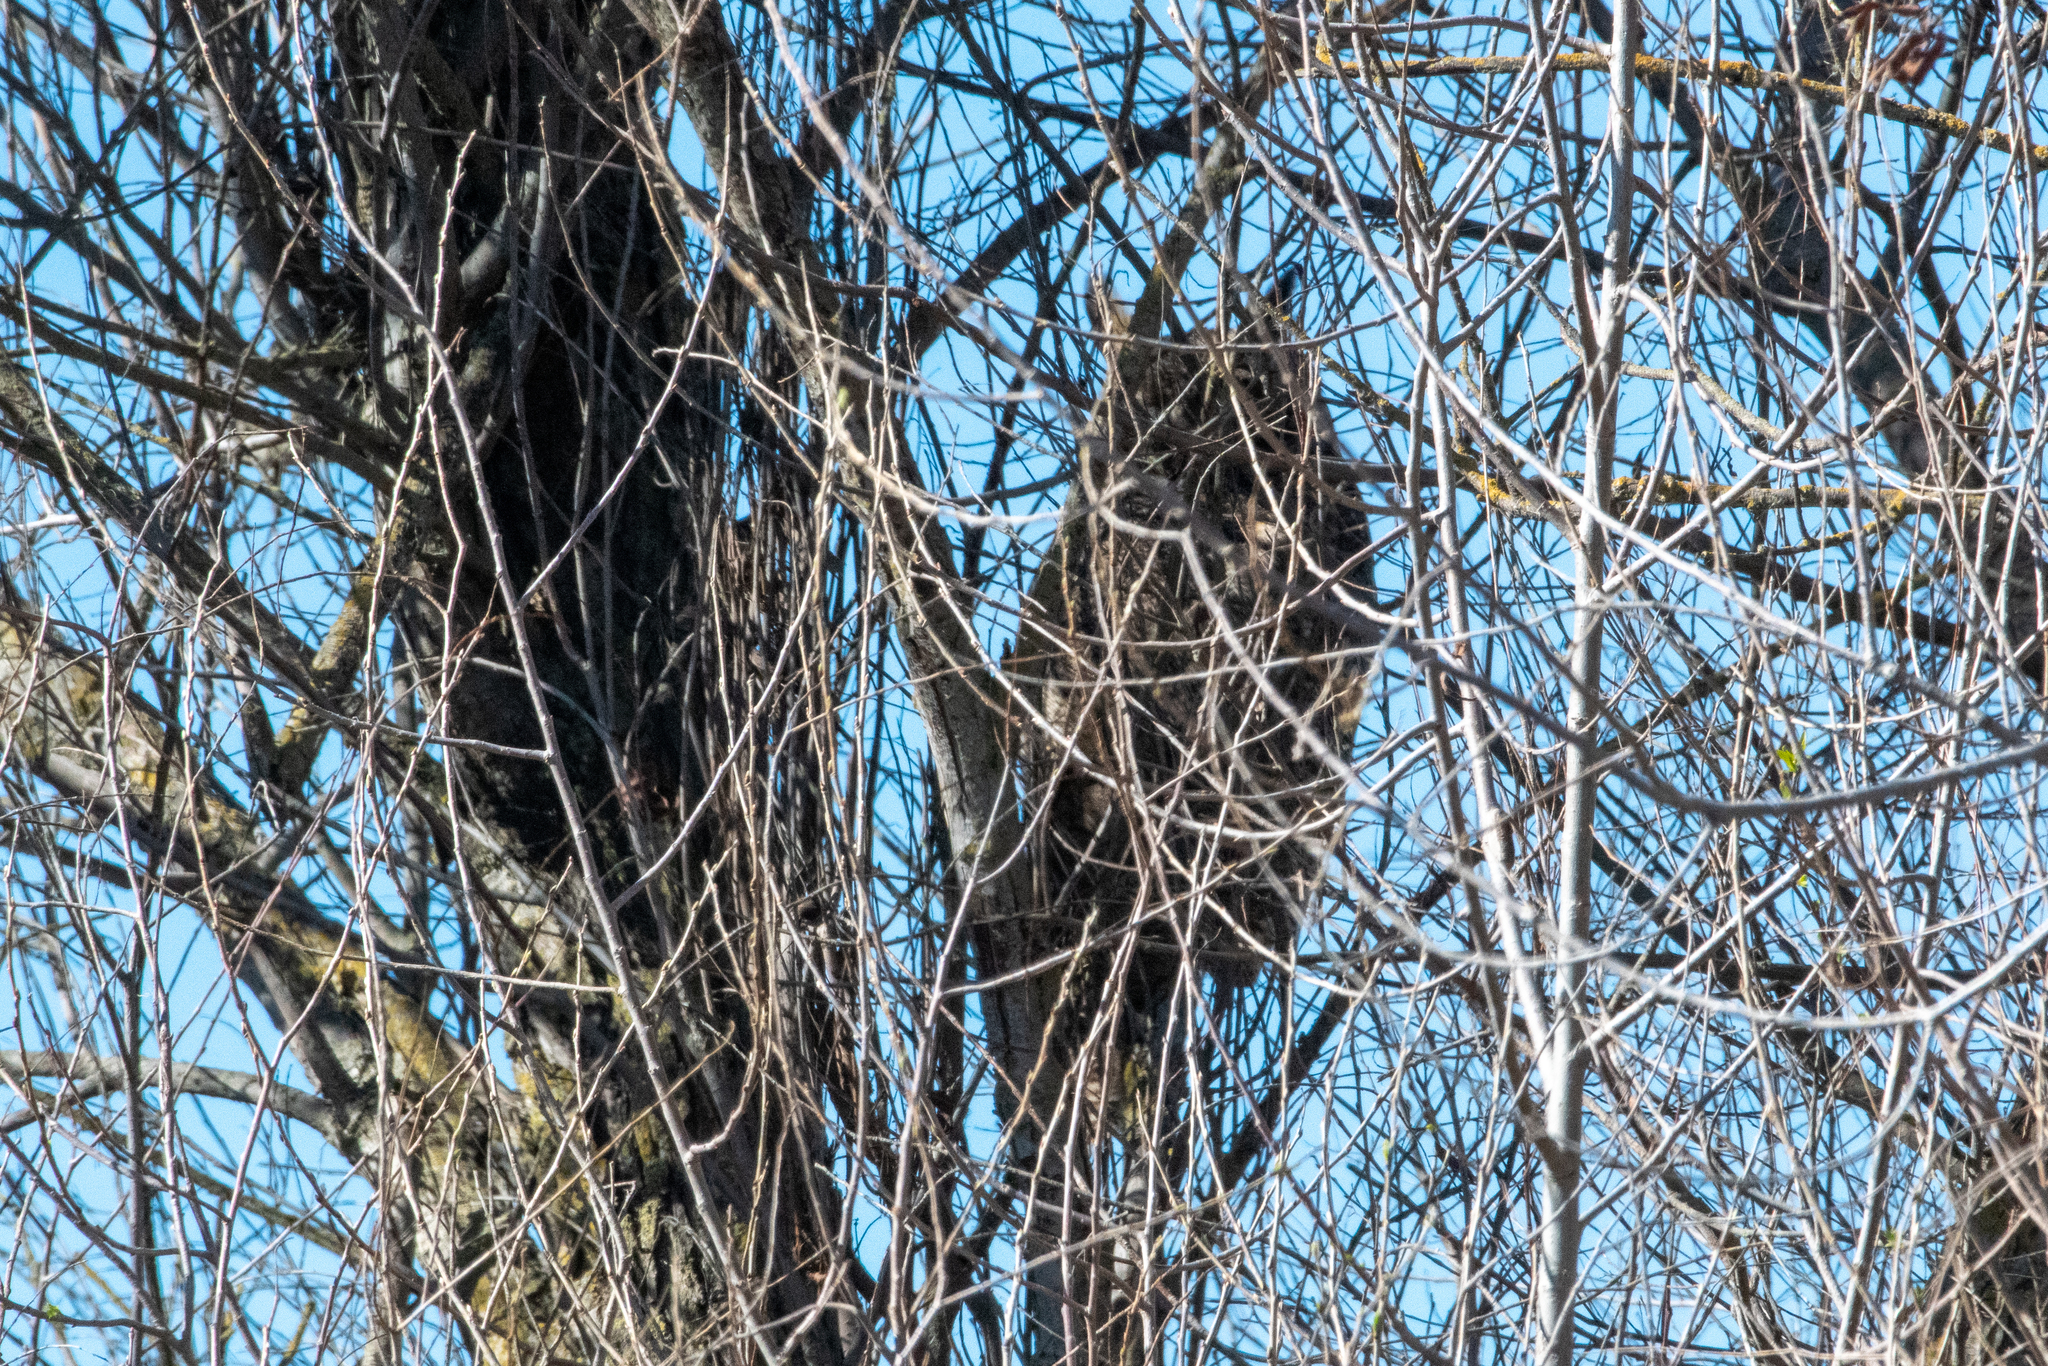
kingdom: Animalia
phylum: Chordata
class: Aves
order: Strigiformes
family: Strigidae
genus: Bubo
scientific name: Bubo virginianus
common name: Great horned owl
